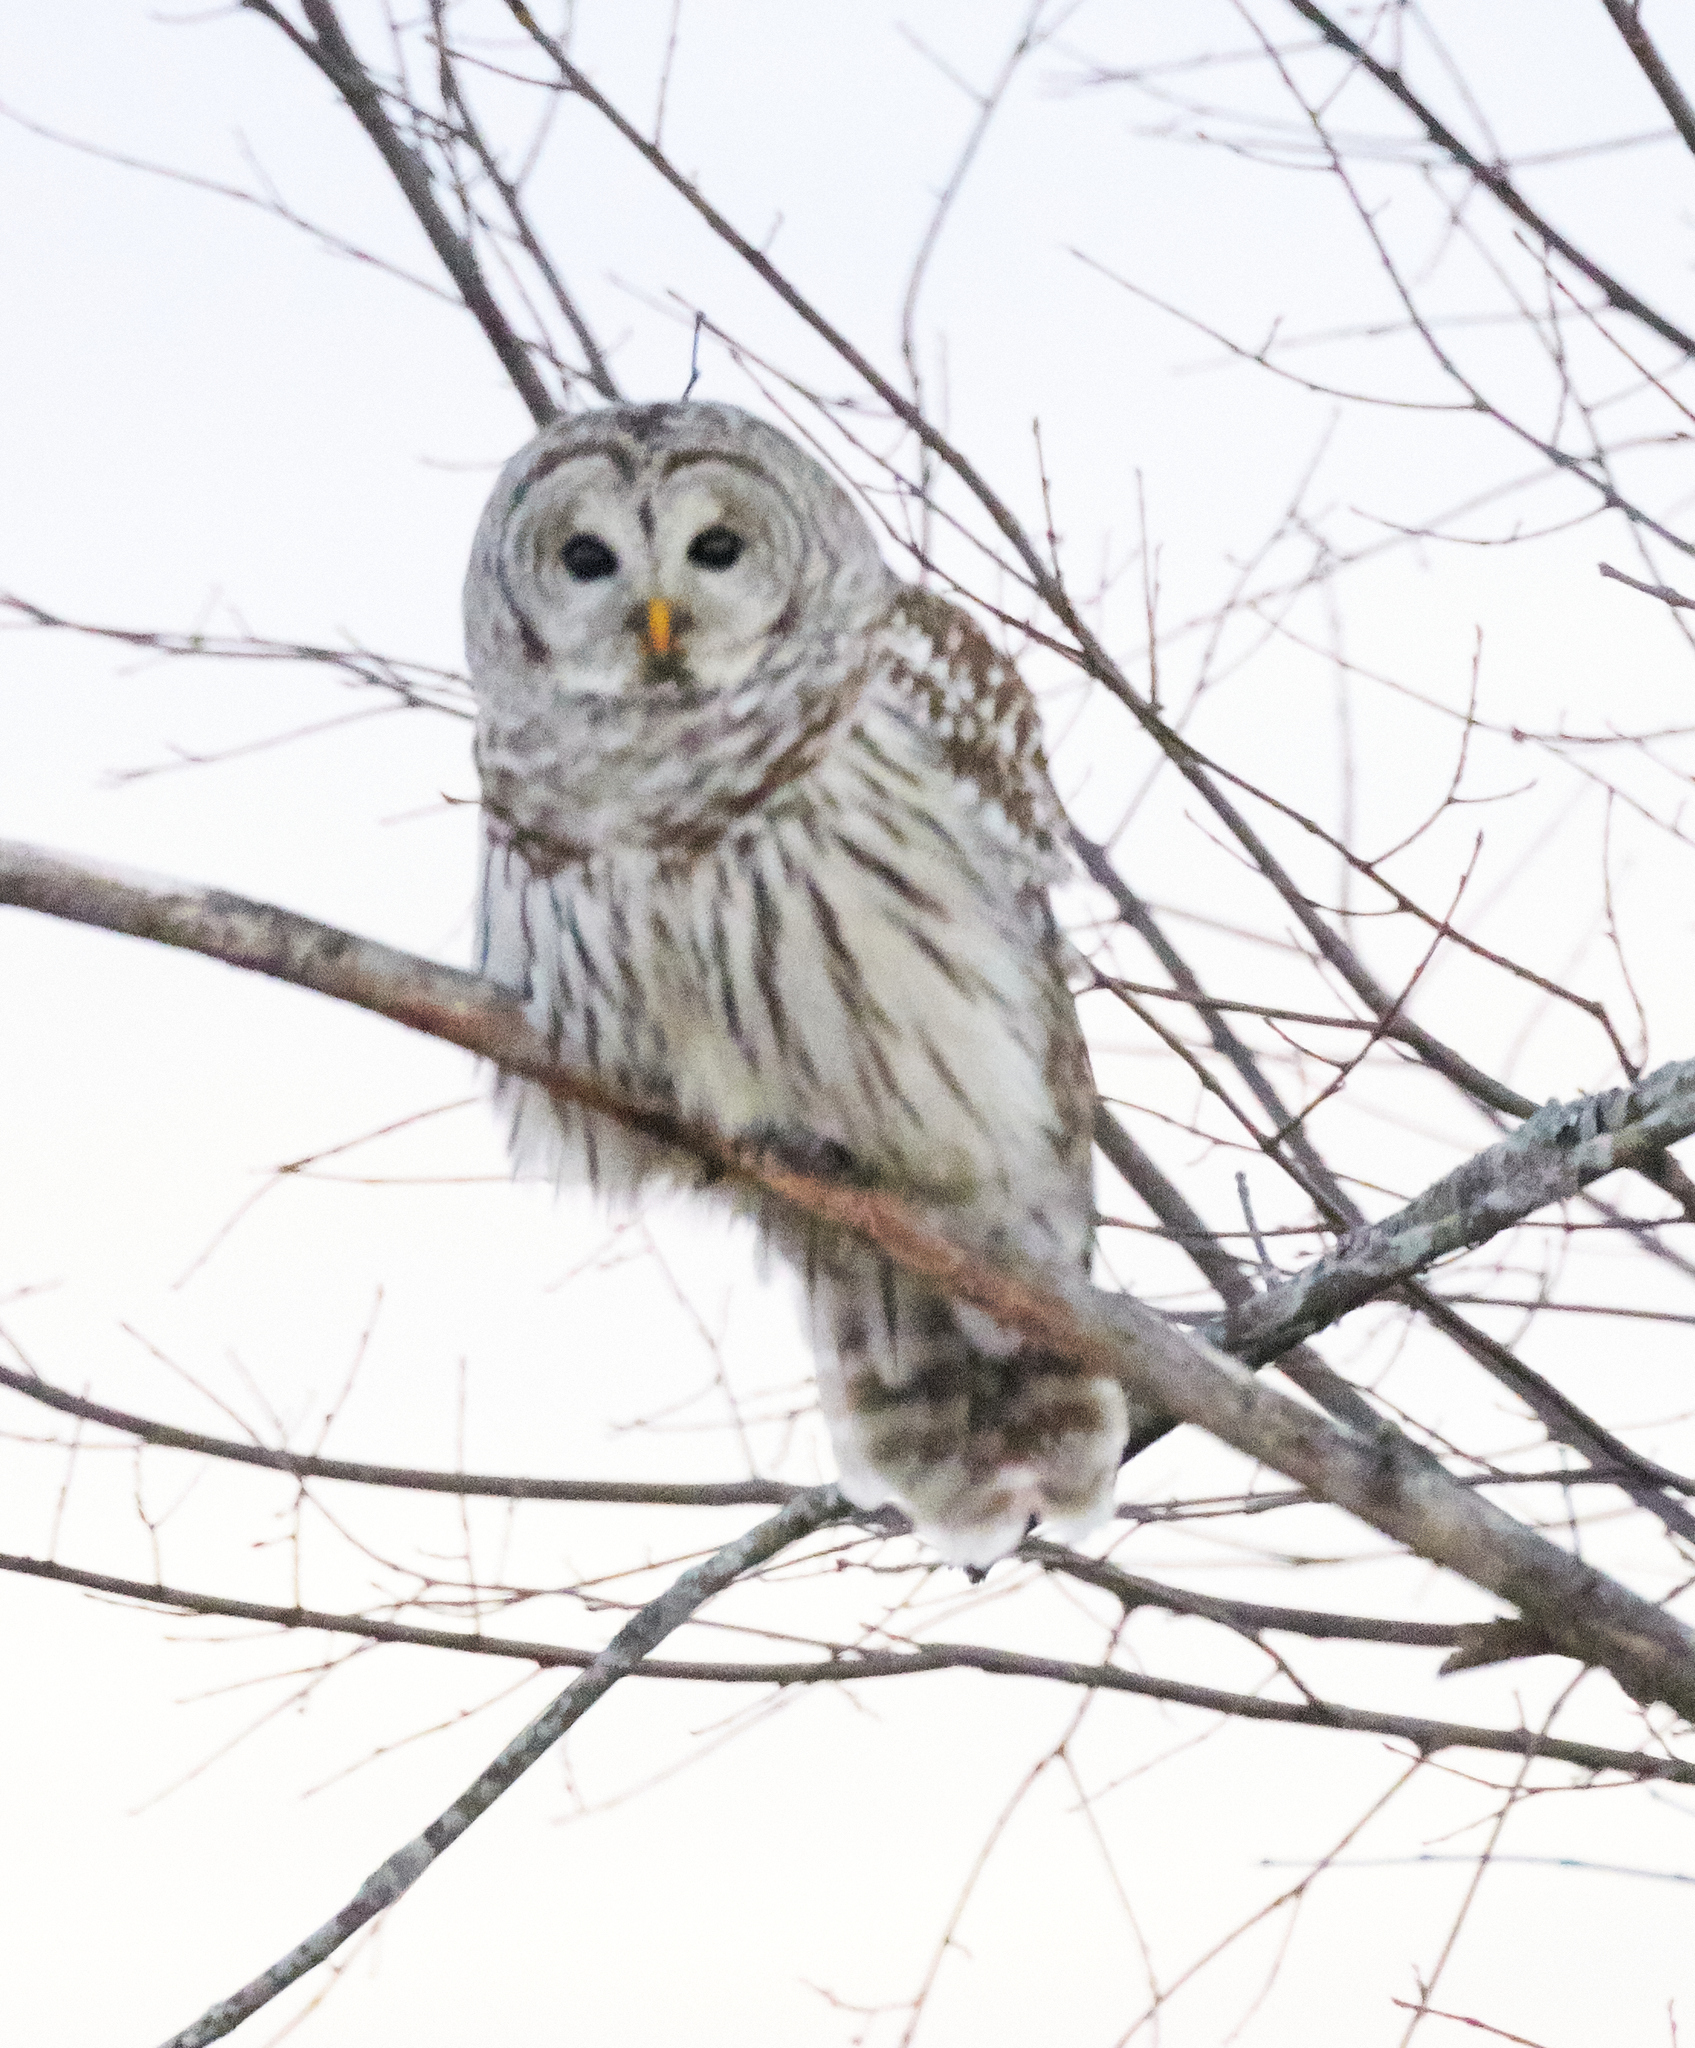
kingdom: Animalia
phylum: Chordata
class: Aves
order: Strigiformes
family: Strigidae
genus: Strix
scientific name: Strix varia
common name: Barred owl
